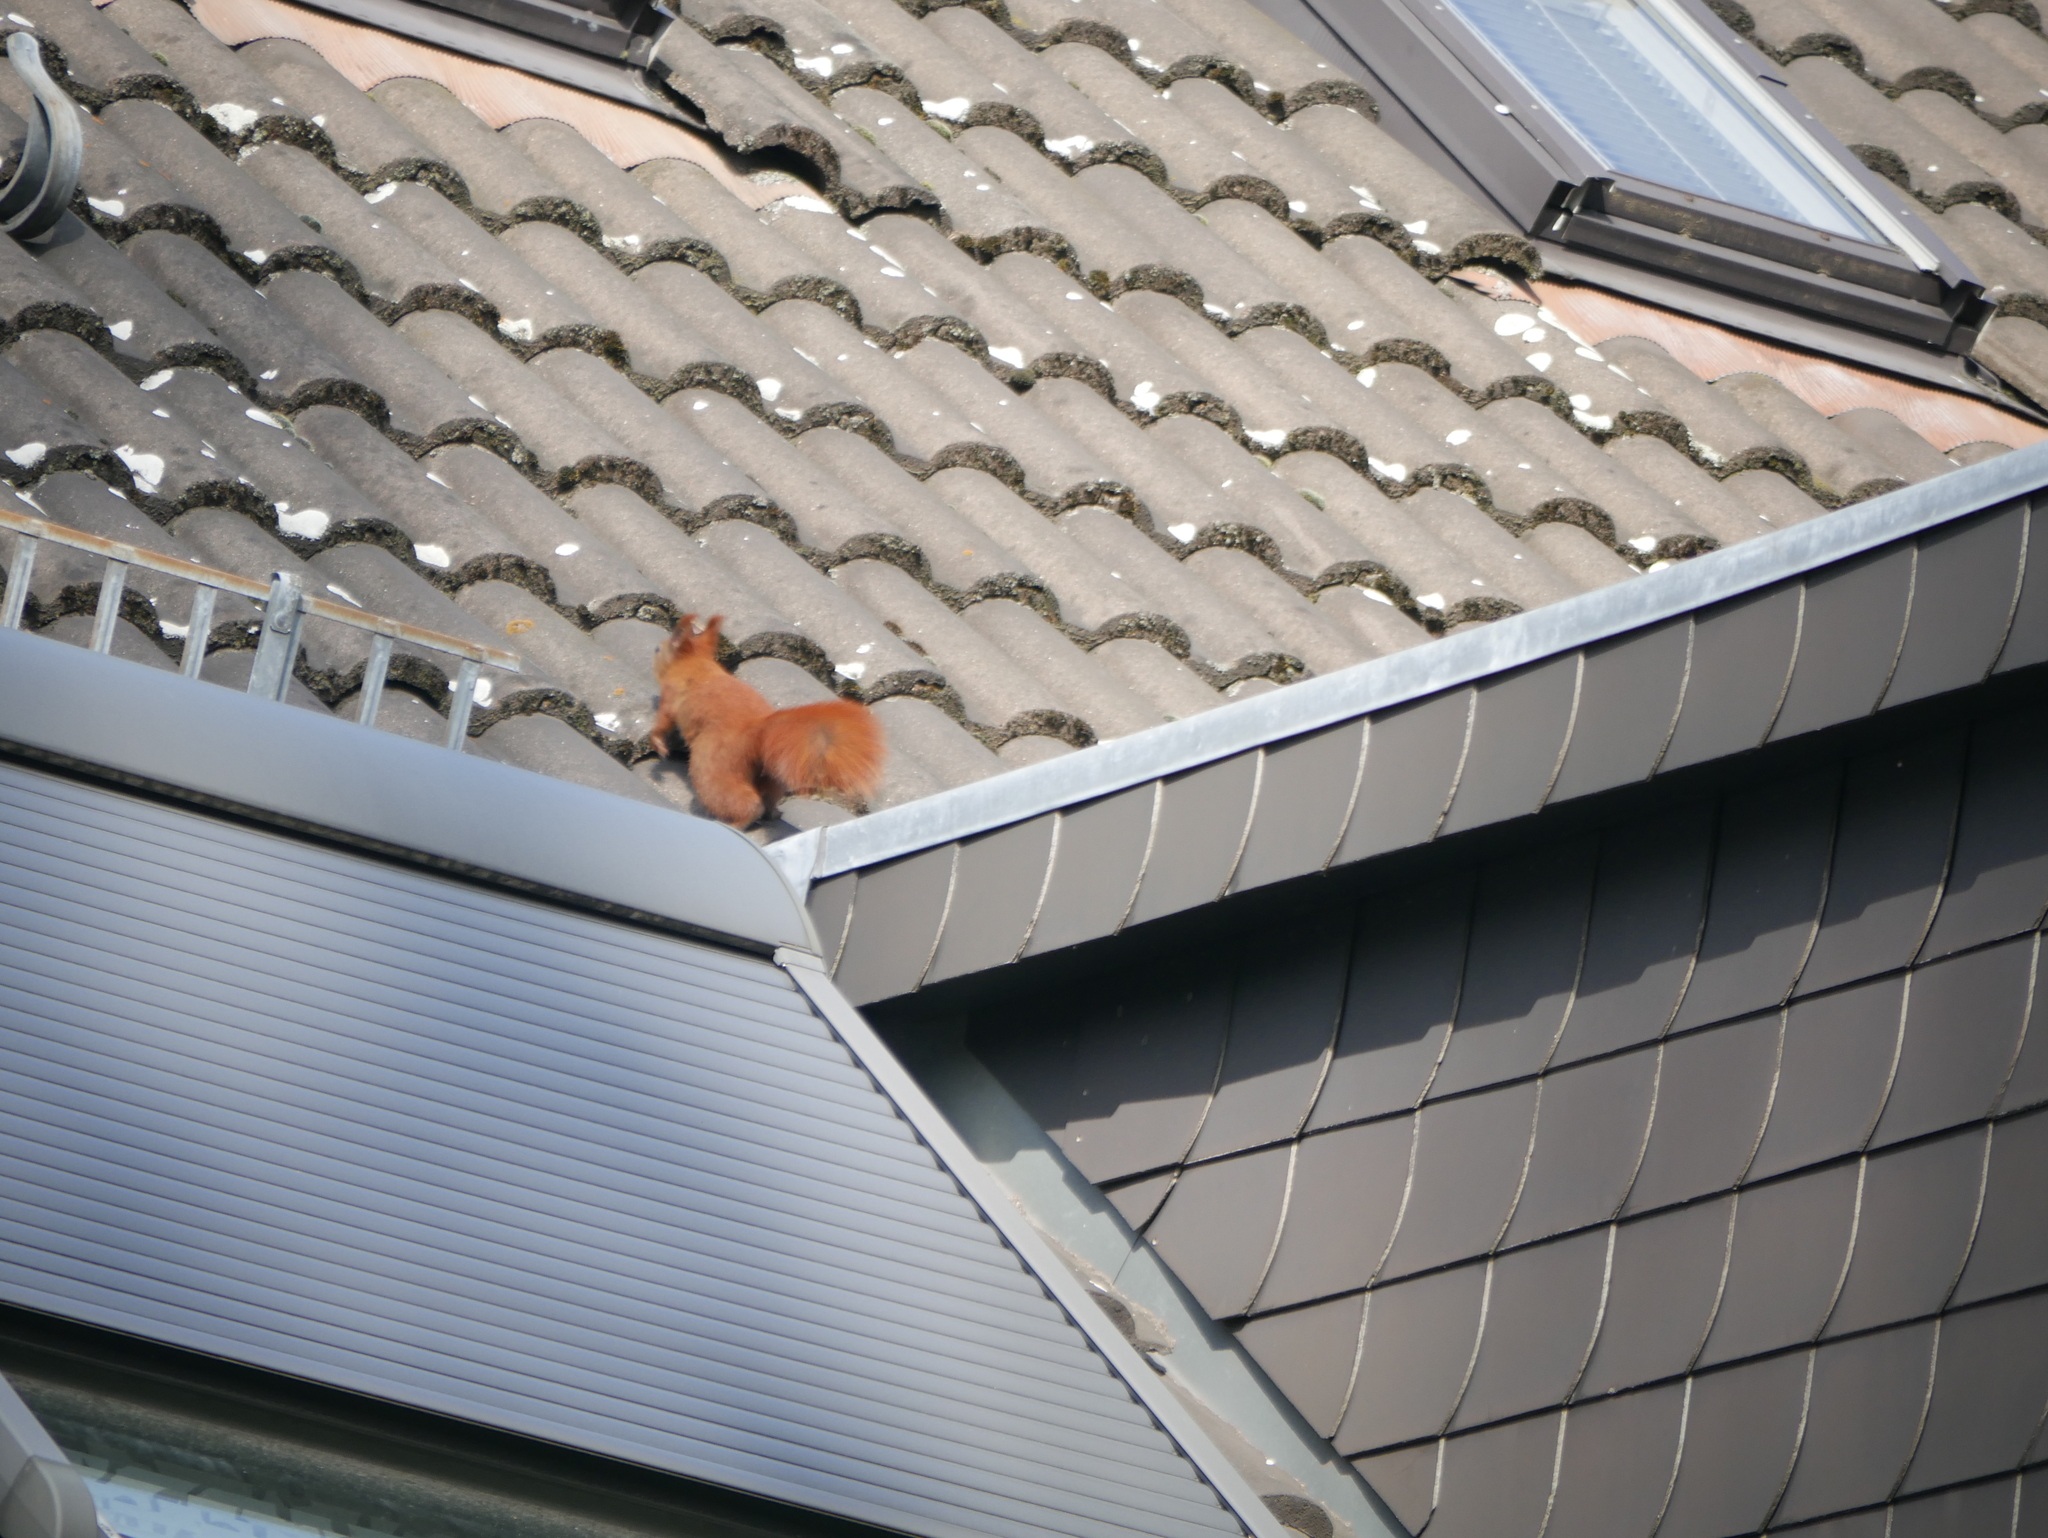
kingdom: Animalia
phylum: Chordata
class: Mammalia
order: Rodentia
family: Sciuridae
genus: Sciurus
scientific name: Sciurus vulgaris
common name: Eurasian red squirrel
